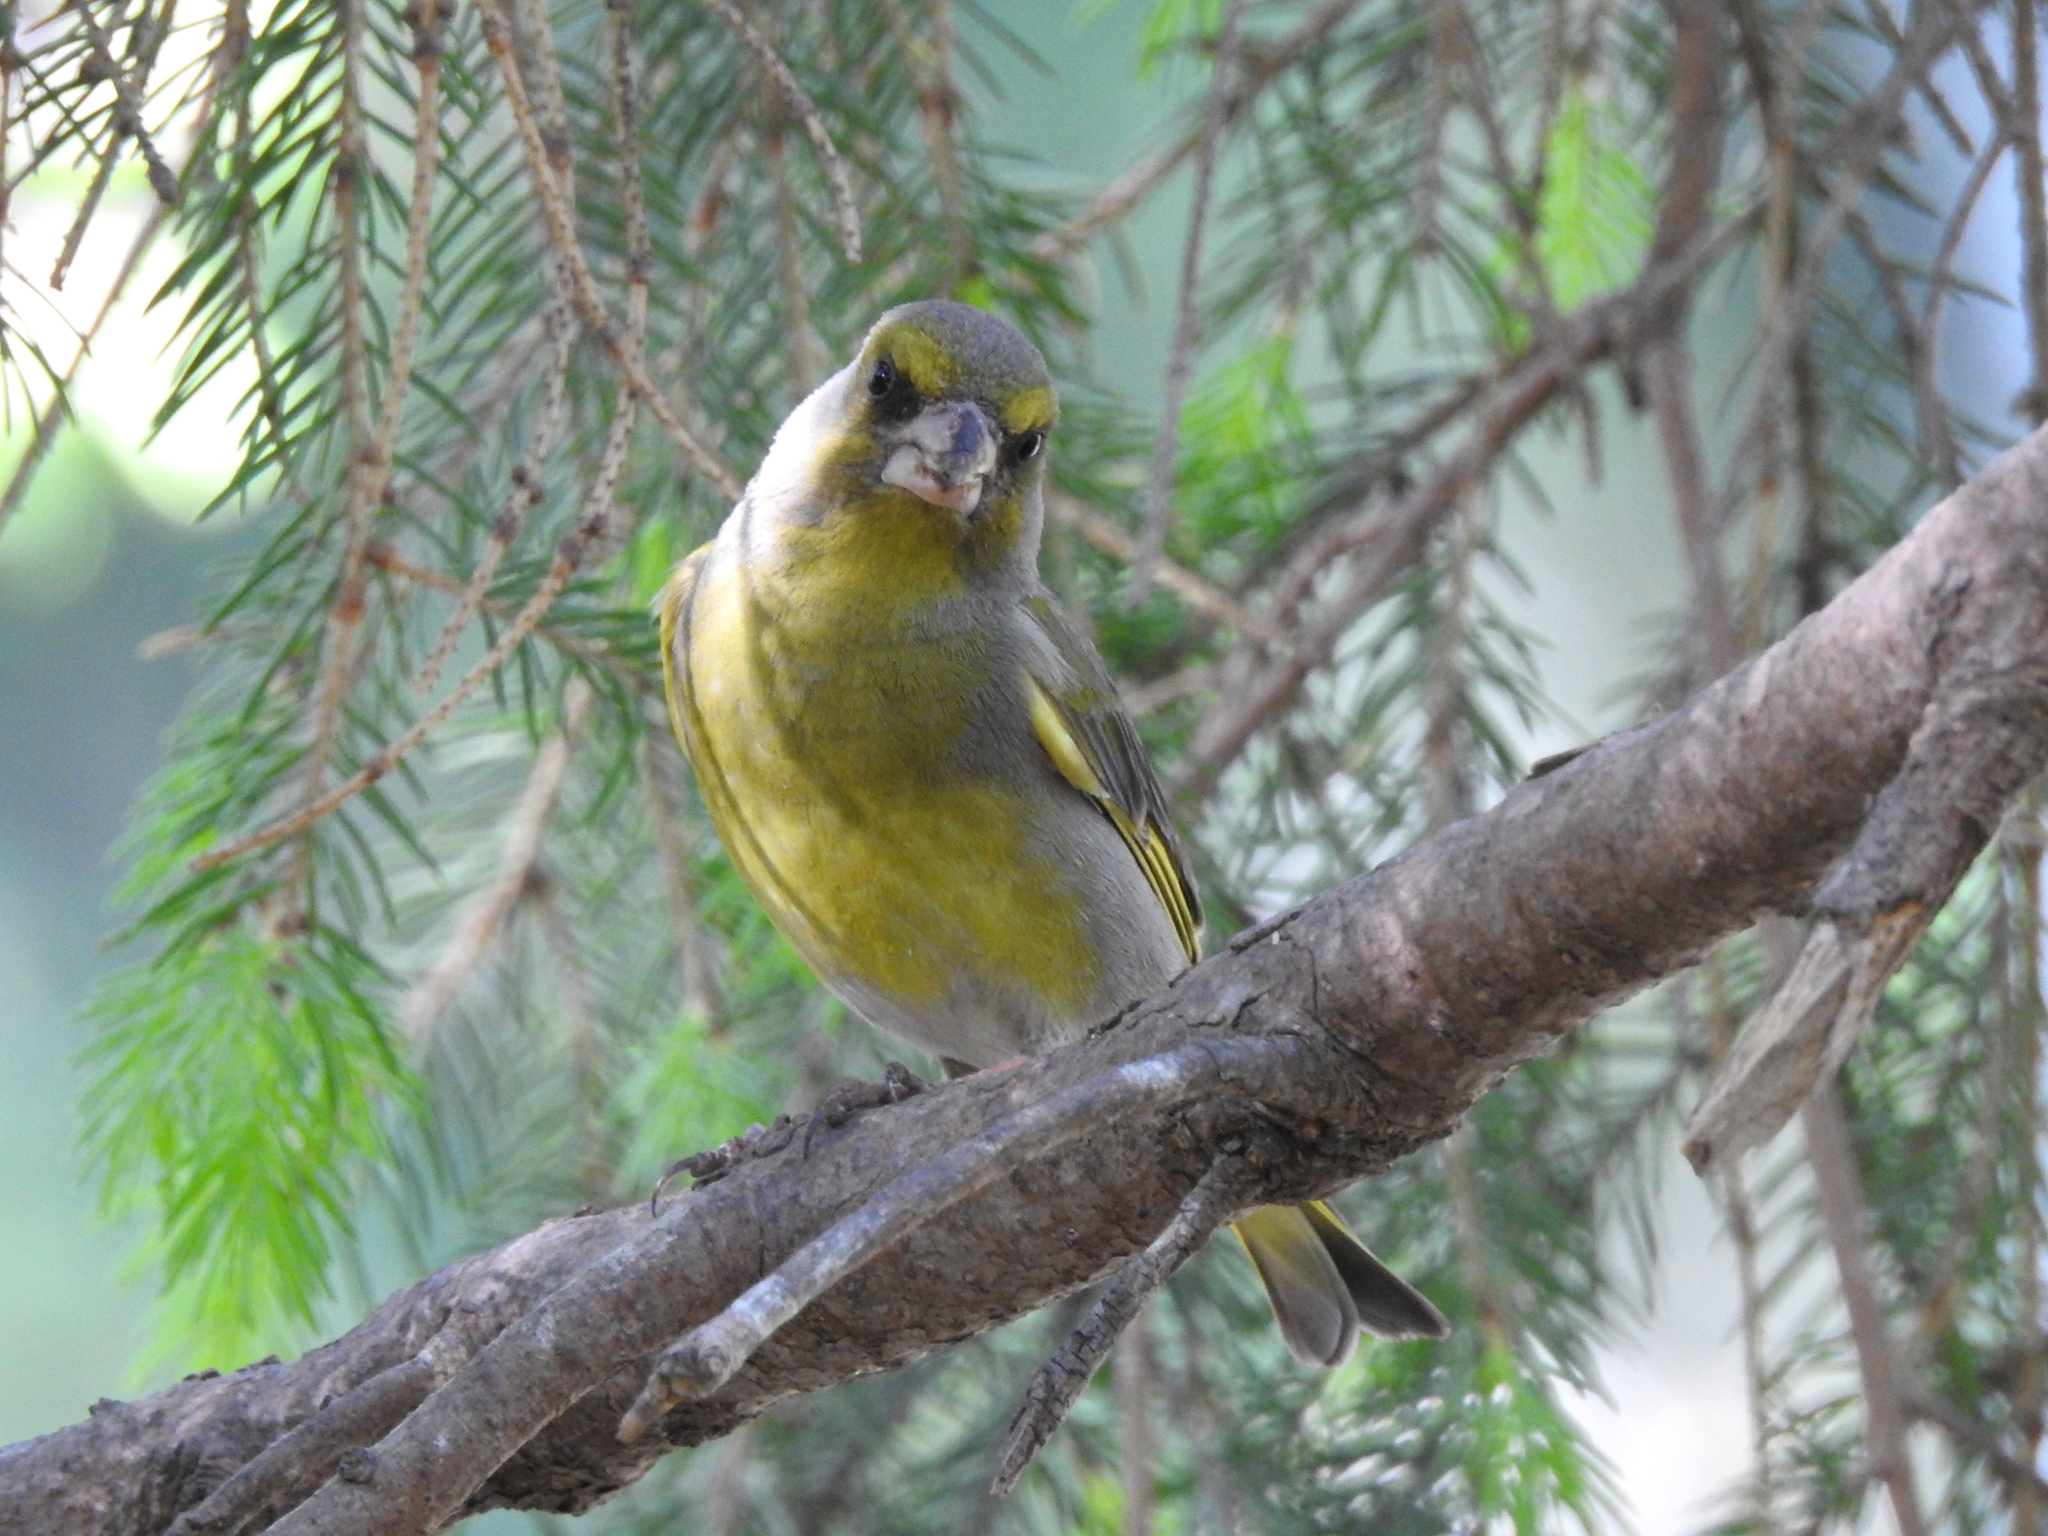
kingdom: Plantae
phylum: Tracheophyta
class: Liliopsida
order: Poales
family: Poaceae
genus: Chloris
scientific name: Chloris chloris
